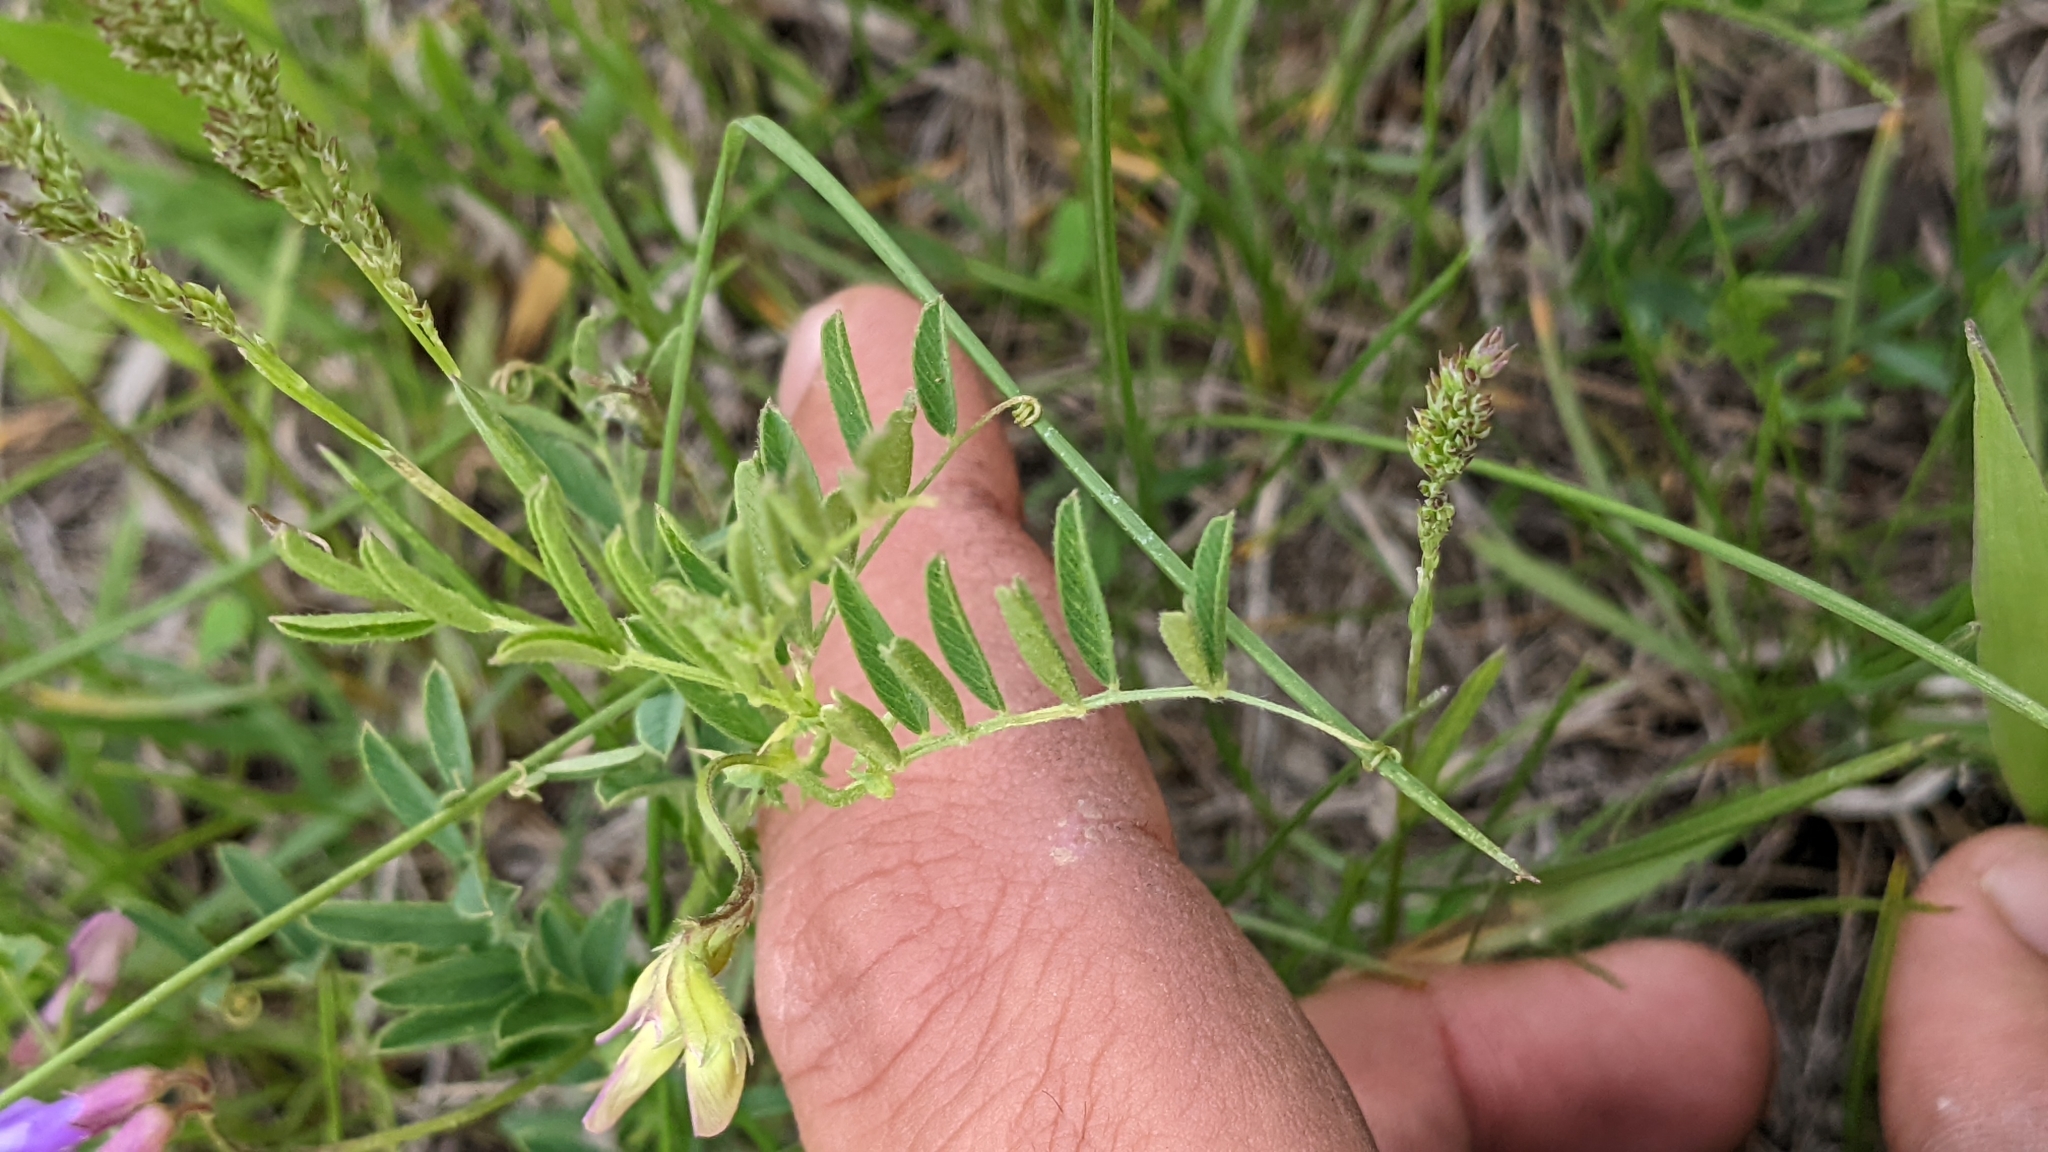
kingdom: Plantae
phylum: Tracheophyta
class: Magnoliopsida
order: Fabales
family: Fabaceae
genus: Vicia
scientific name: Vicia americana
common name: American vetch
